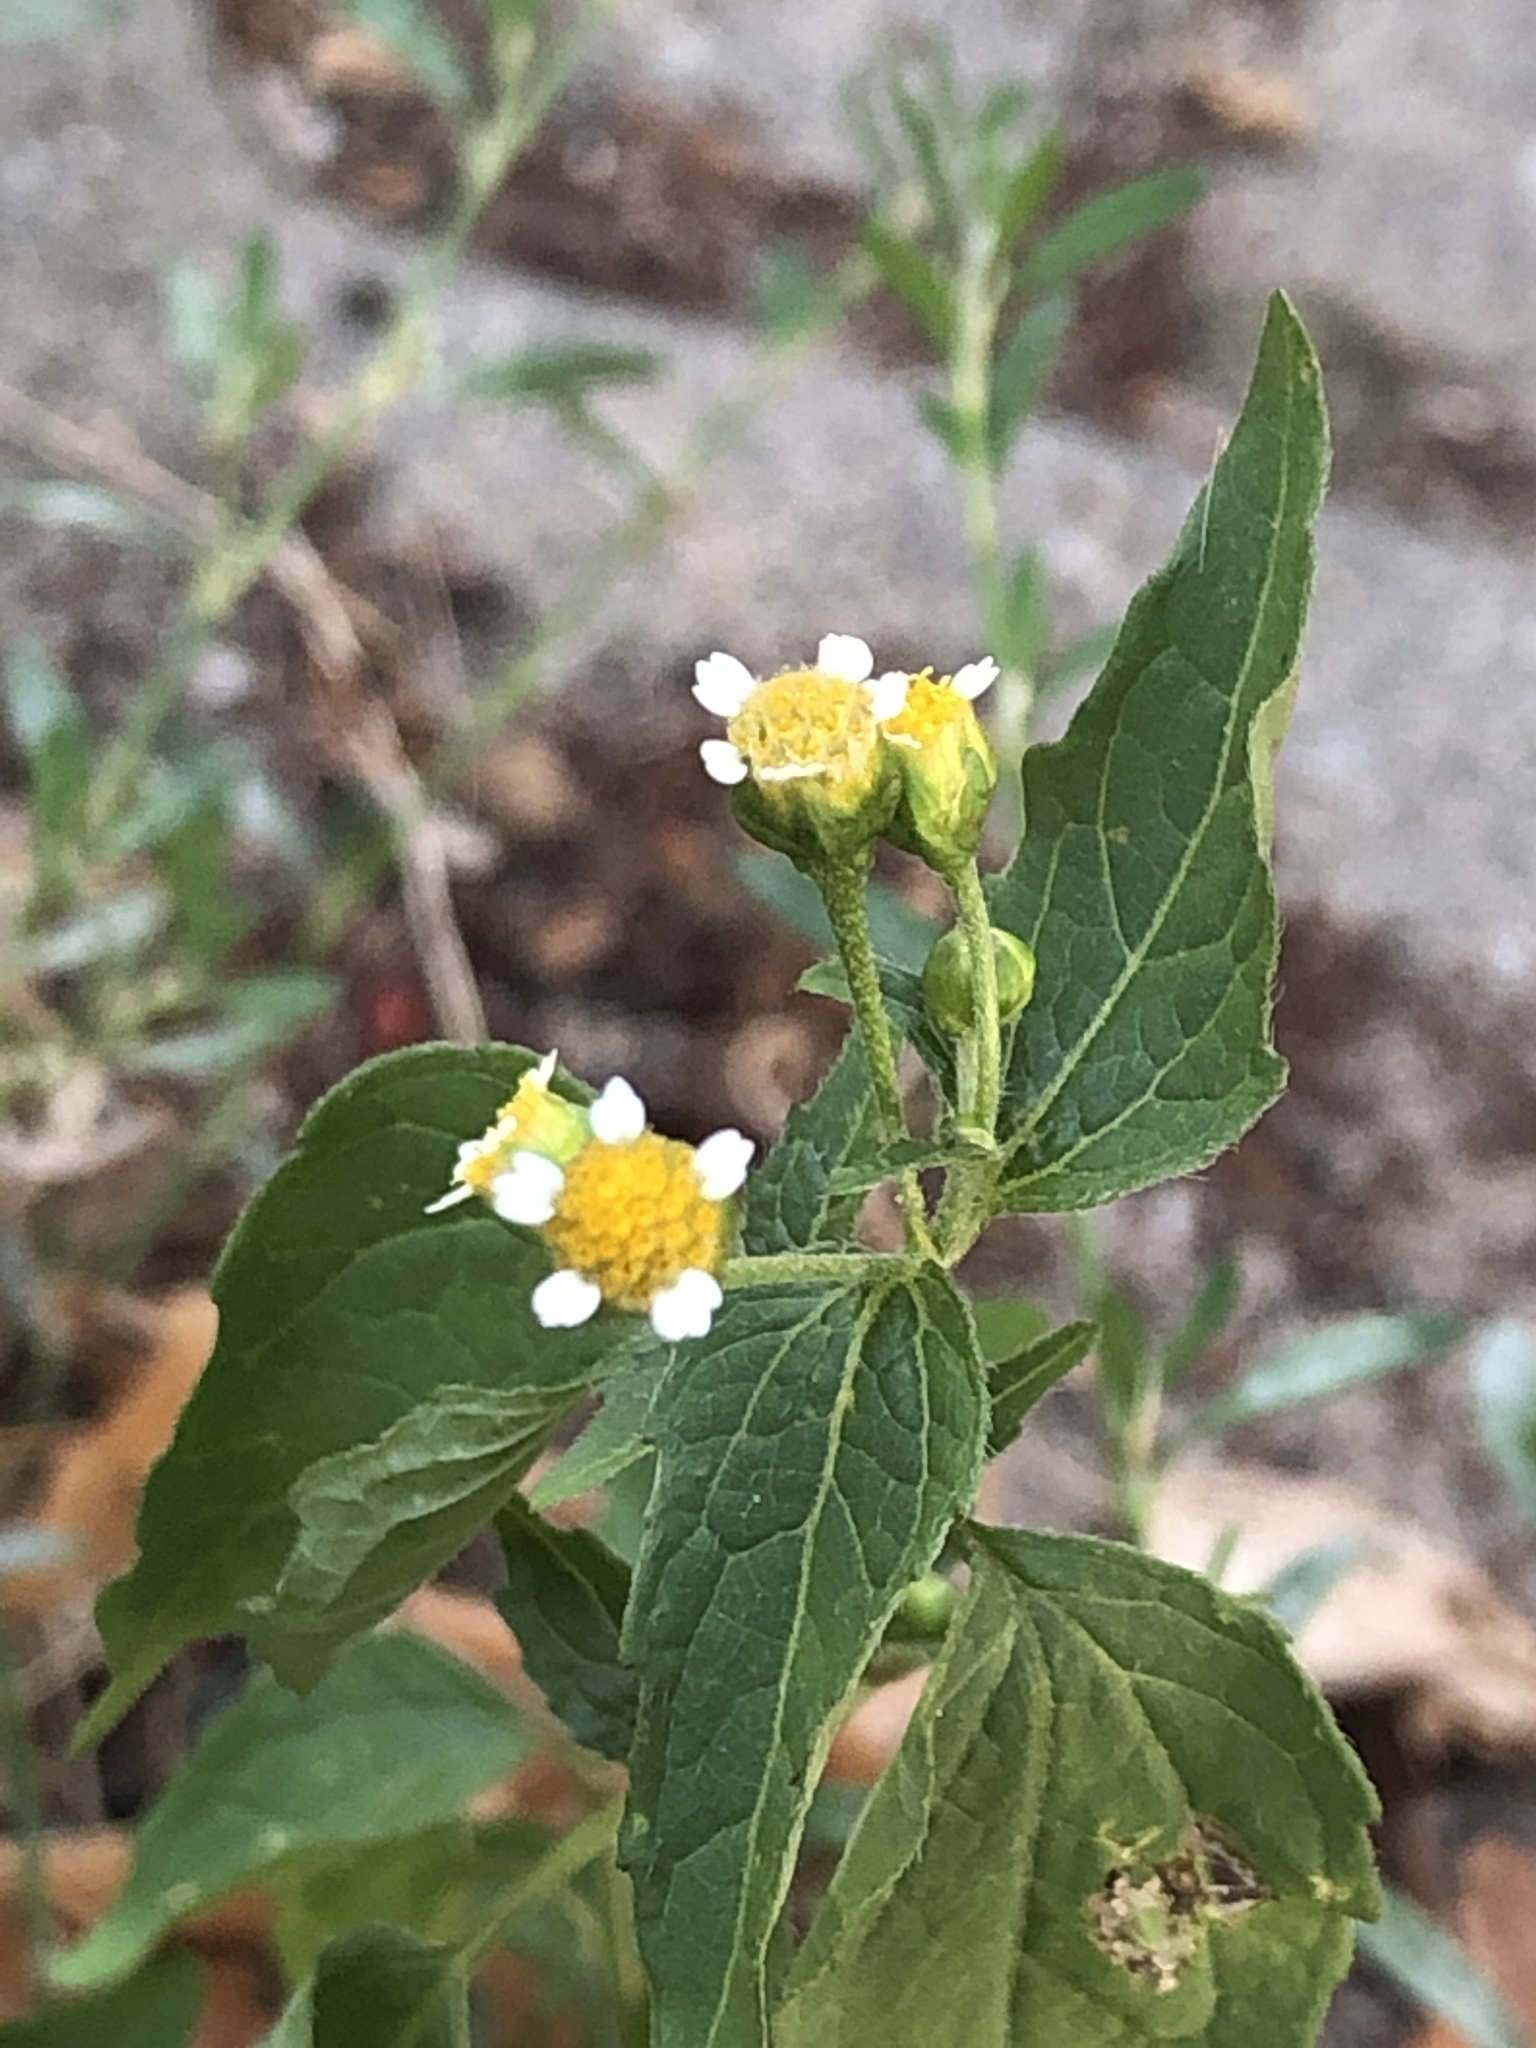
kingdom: Plantae
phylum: Tracheophyta
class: Magnoliopsida
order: Asterales
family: Asteraceae
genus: Galinsoga
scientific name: Galinsoga parviflora
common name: Gallant soldier
